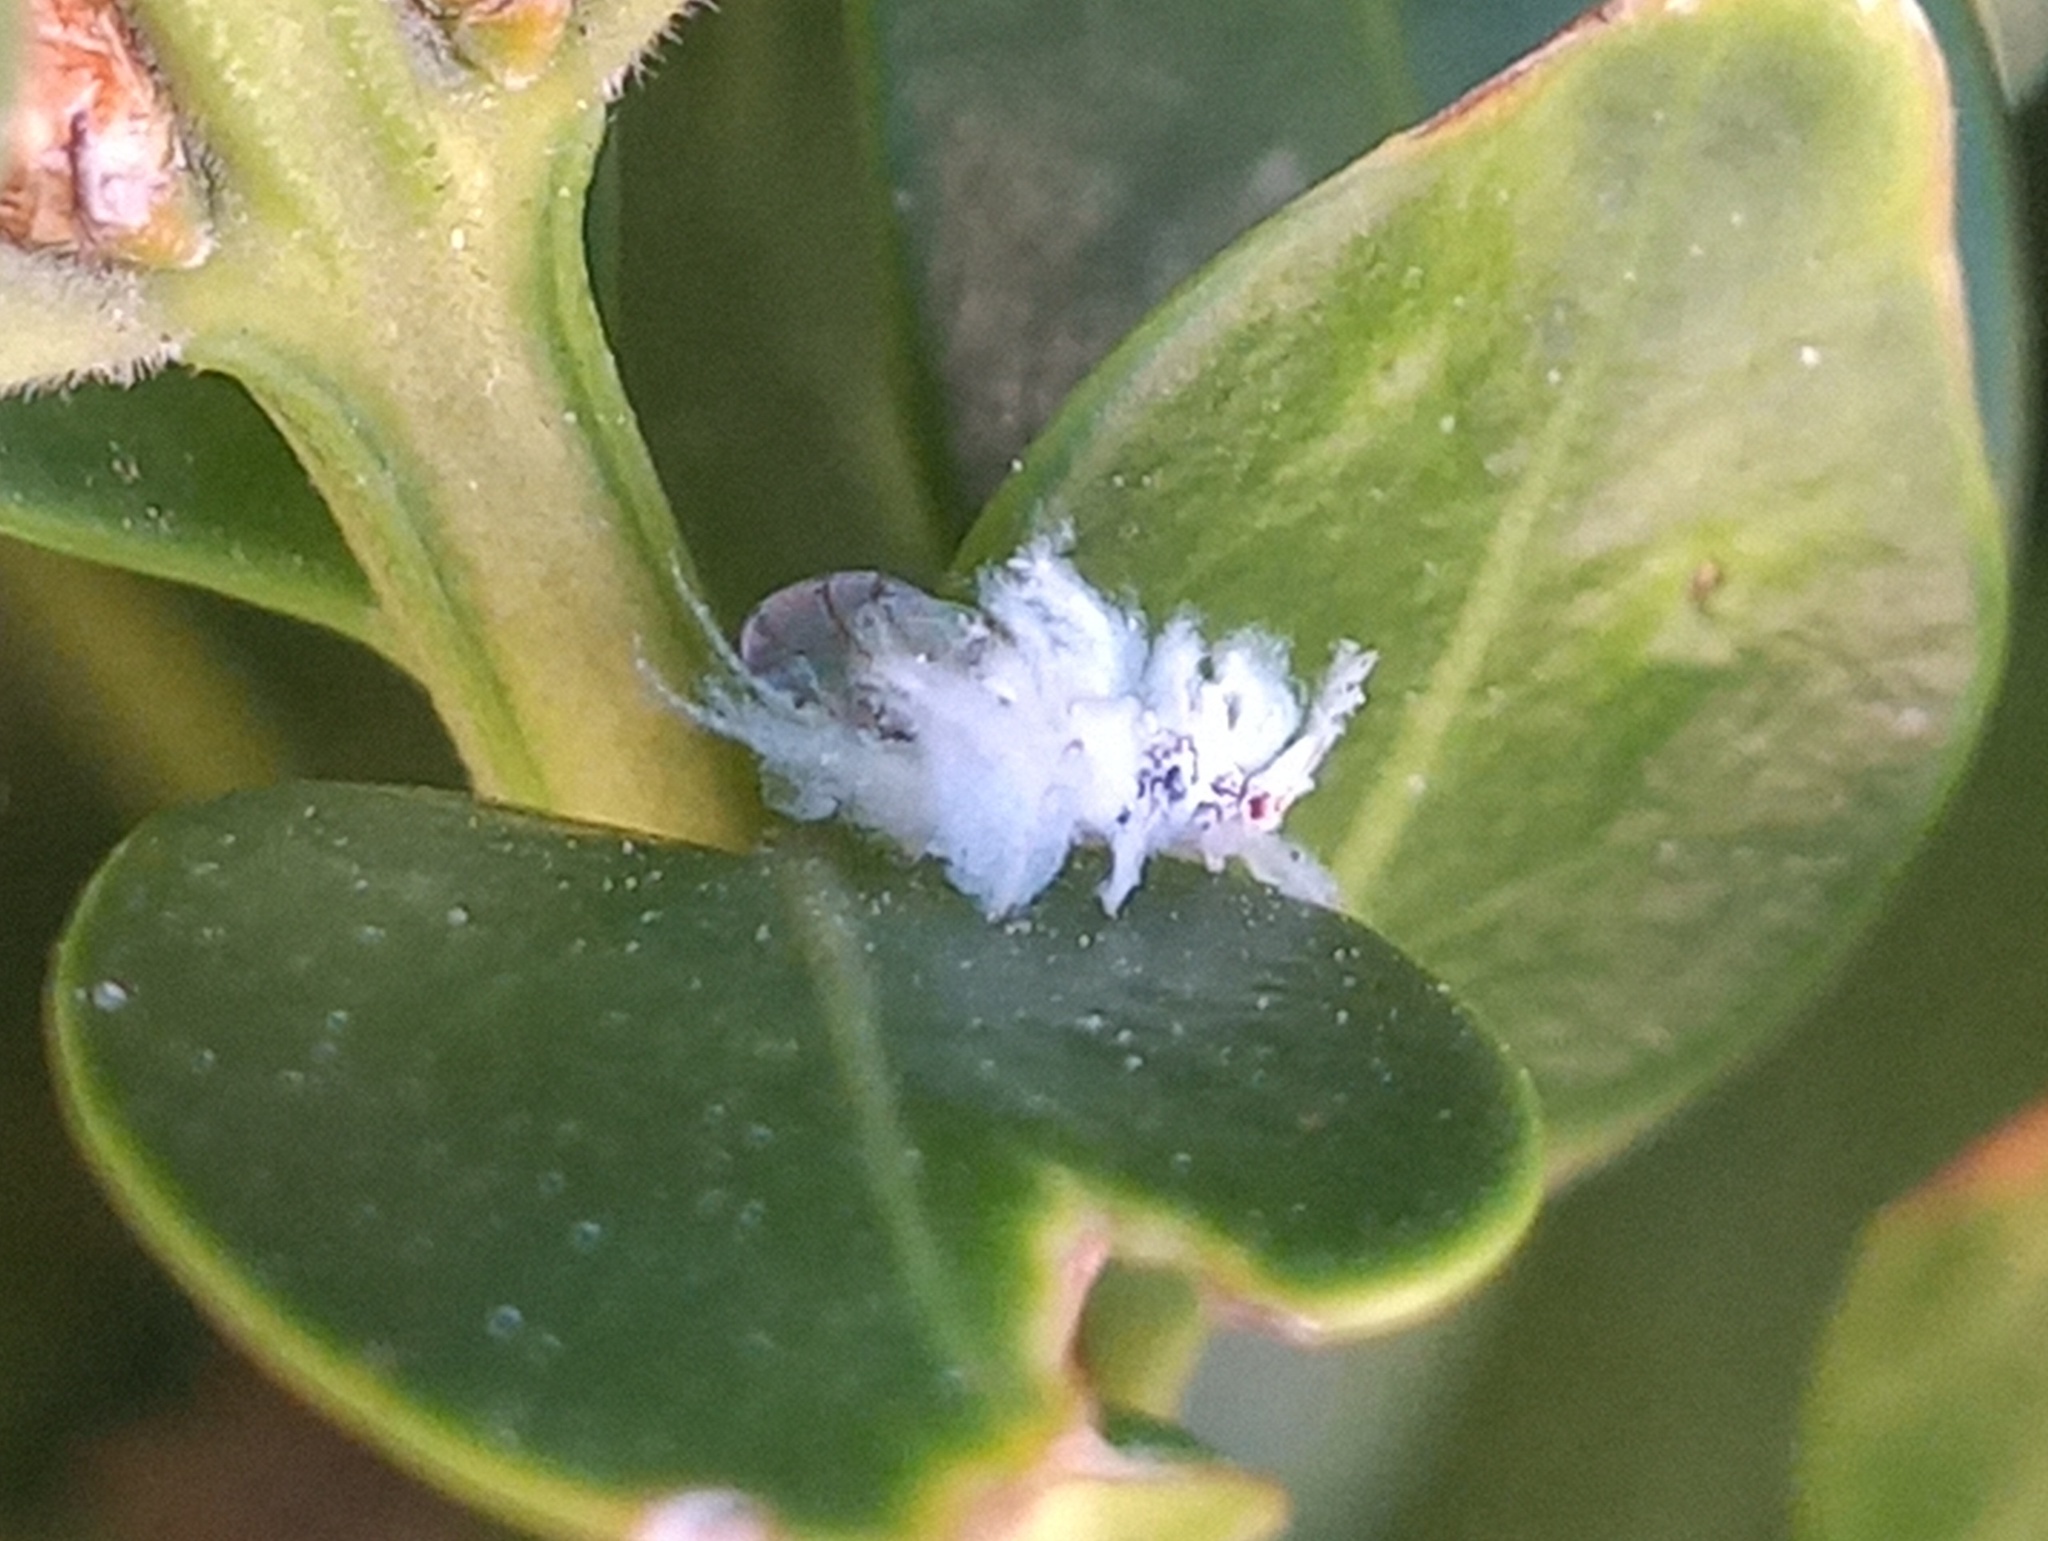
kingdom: Animalia
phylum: Arthropoda
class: Insecta
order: Hemiptera
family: Aphididae
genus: Shivaphis
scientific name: Shivaphis celti
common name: Asian wooly hackberry aphid
